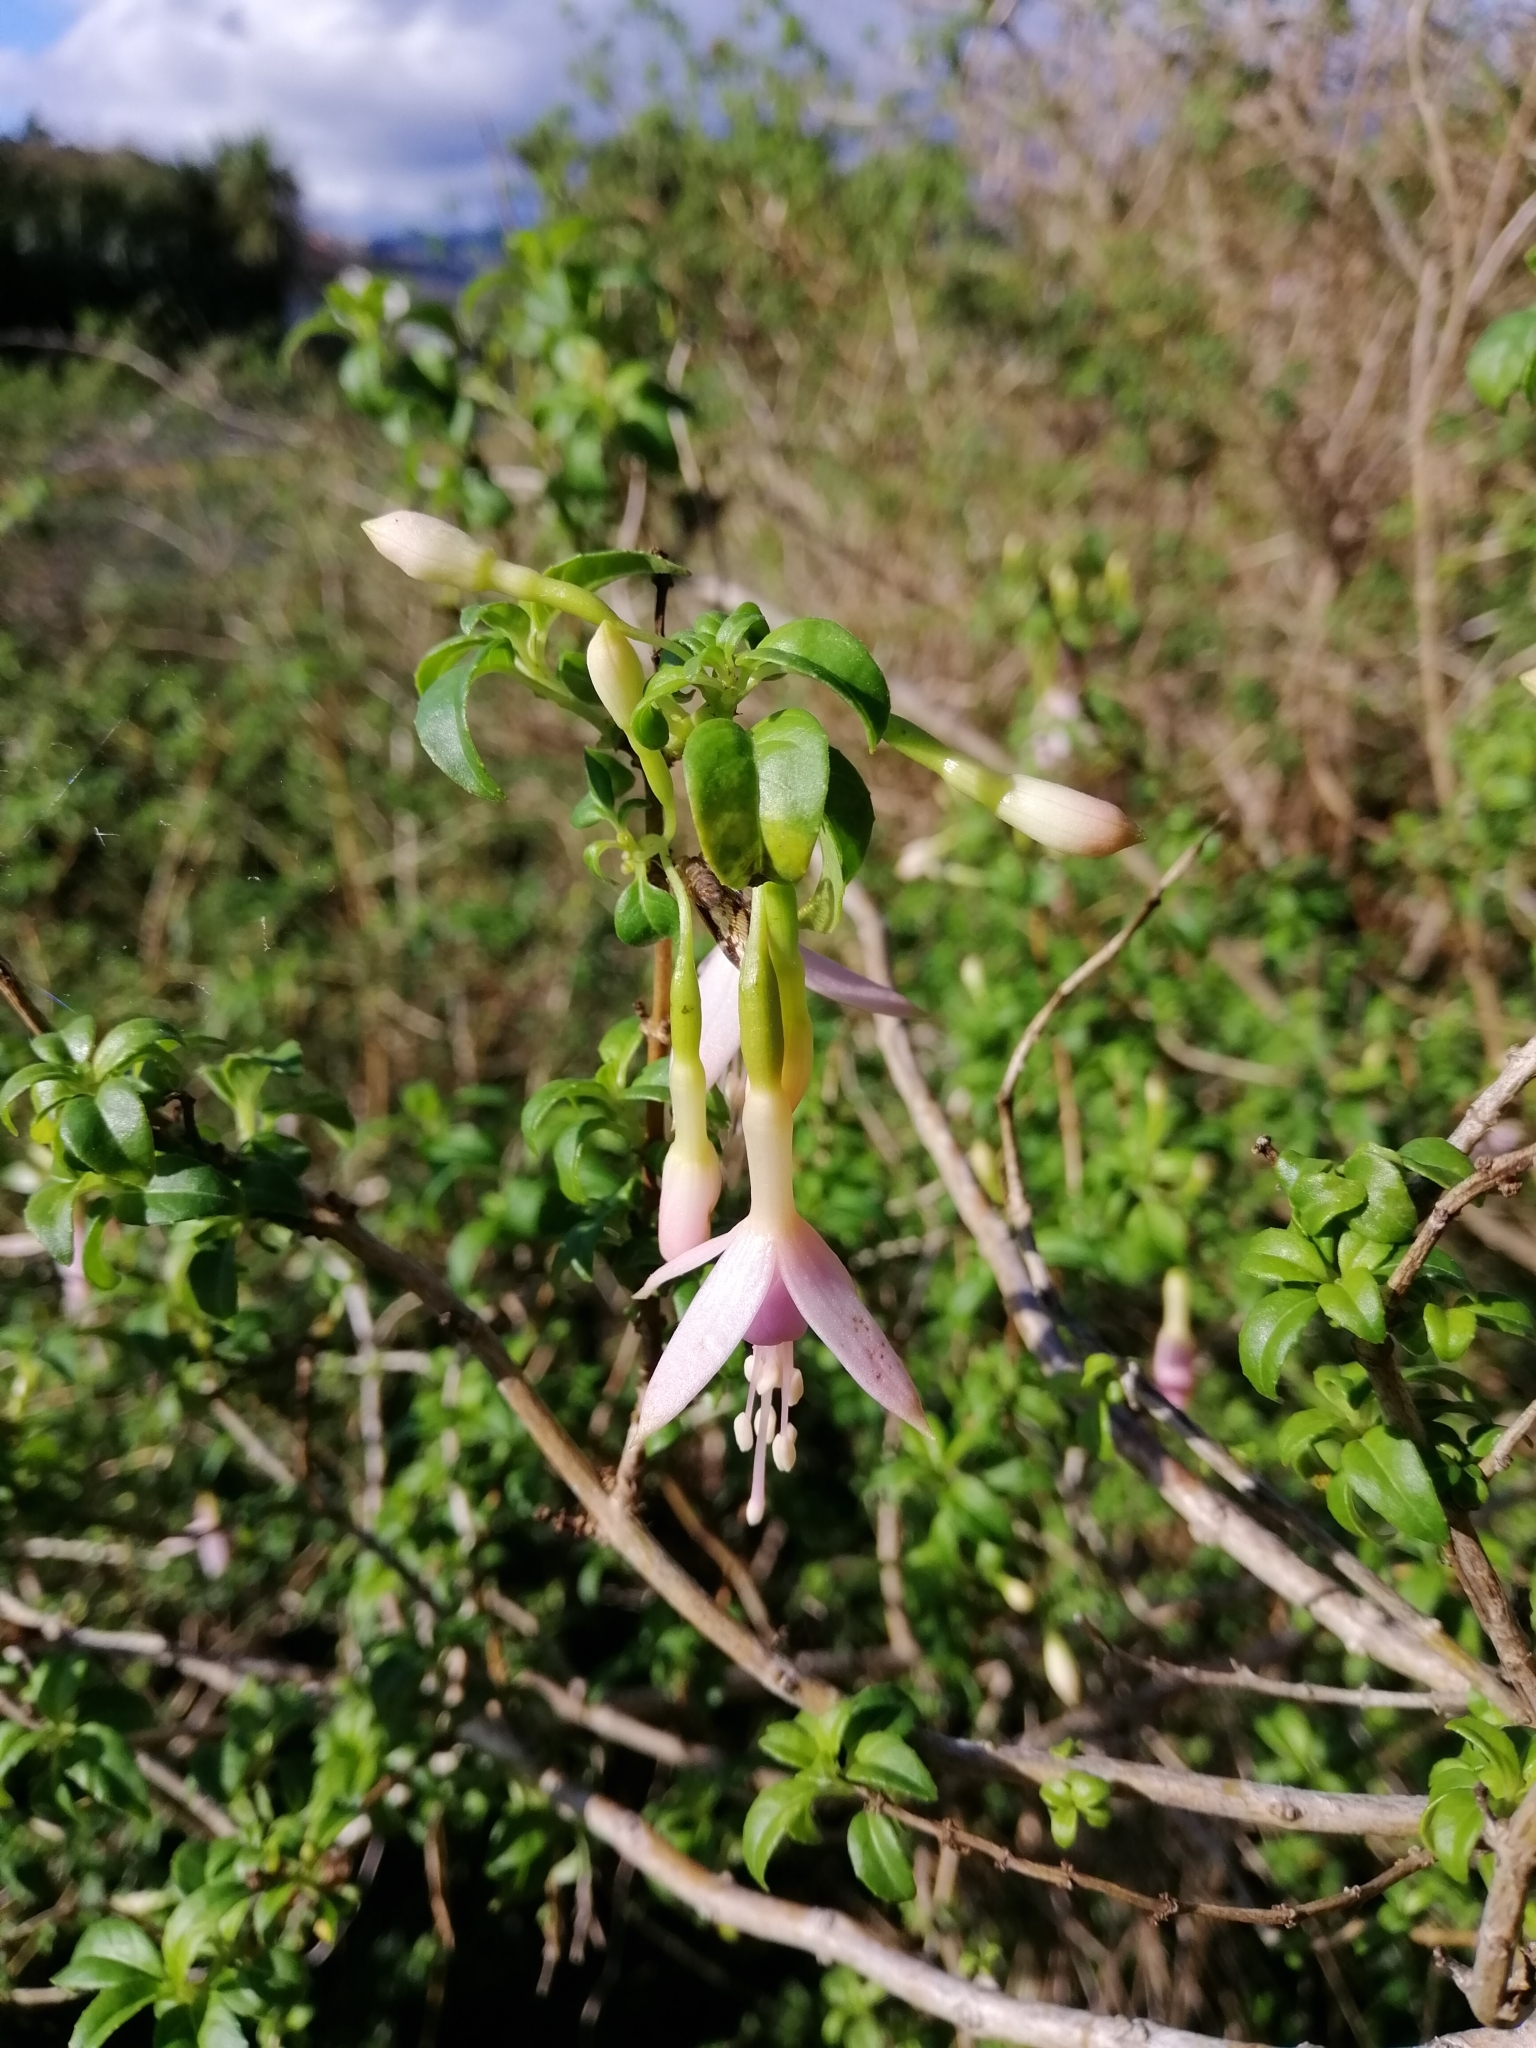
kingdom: Plantae
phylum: Tracheophyta
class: Magnoliopsida
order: Myrtales
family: Onagraceae
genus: Fuchsia
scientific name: Fuchsia magellanica
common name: Hardy fuchsia
